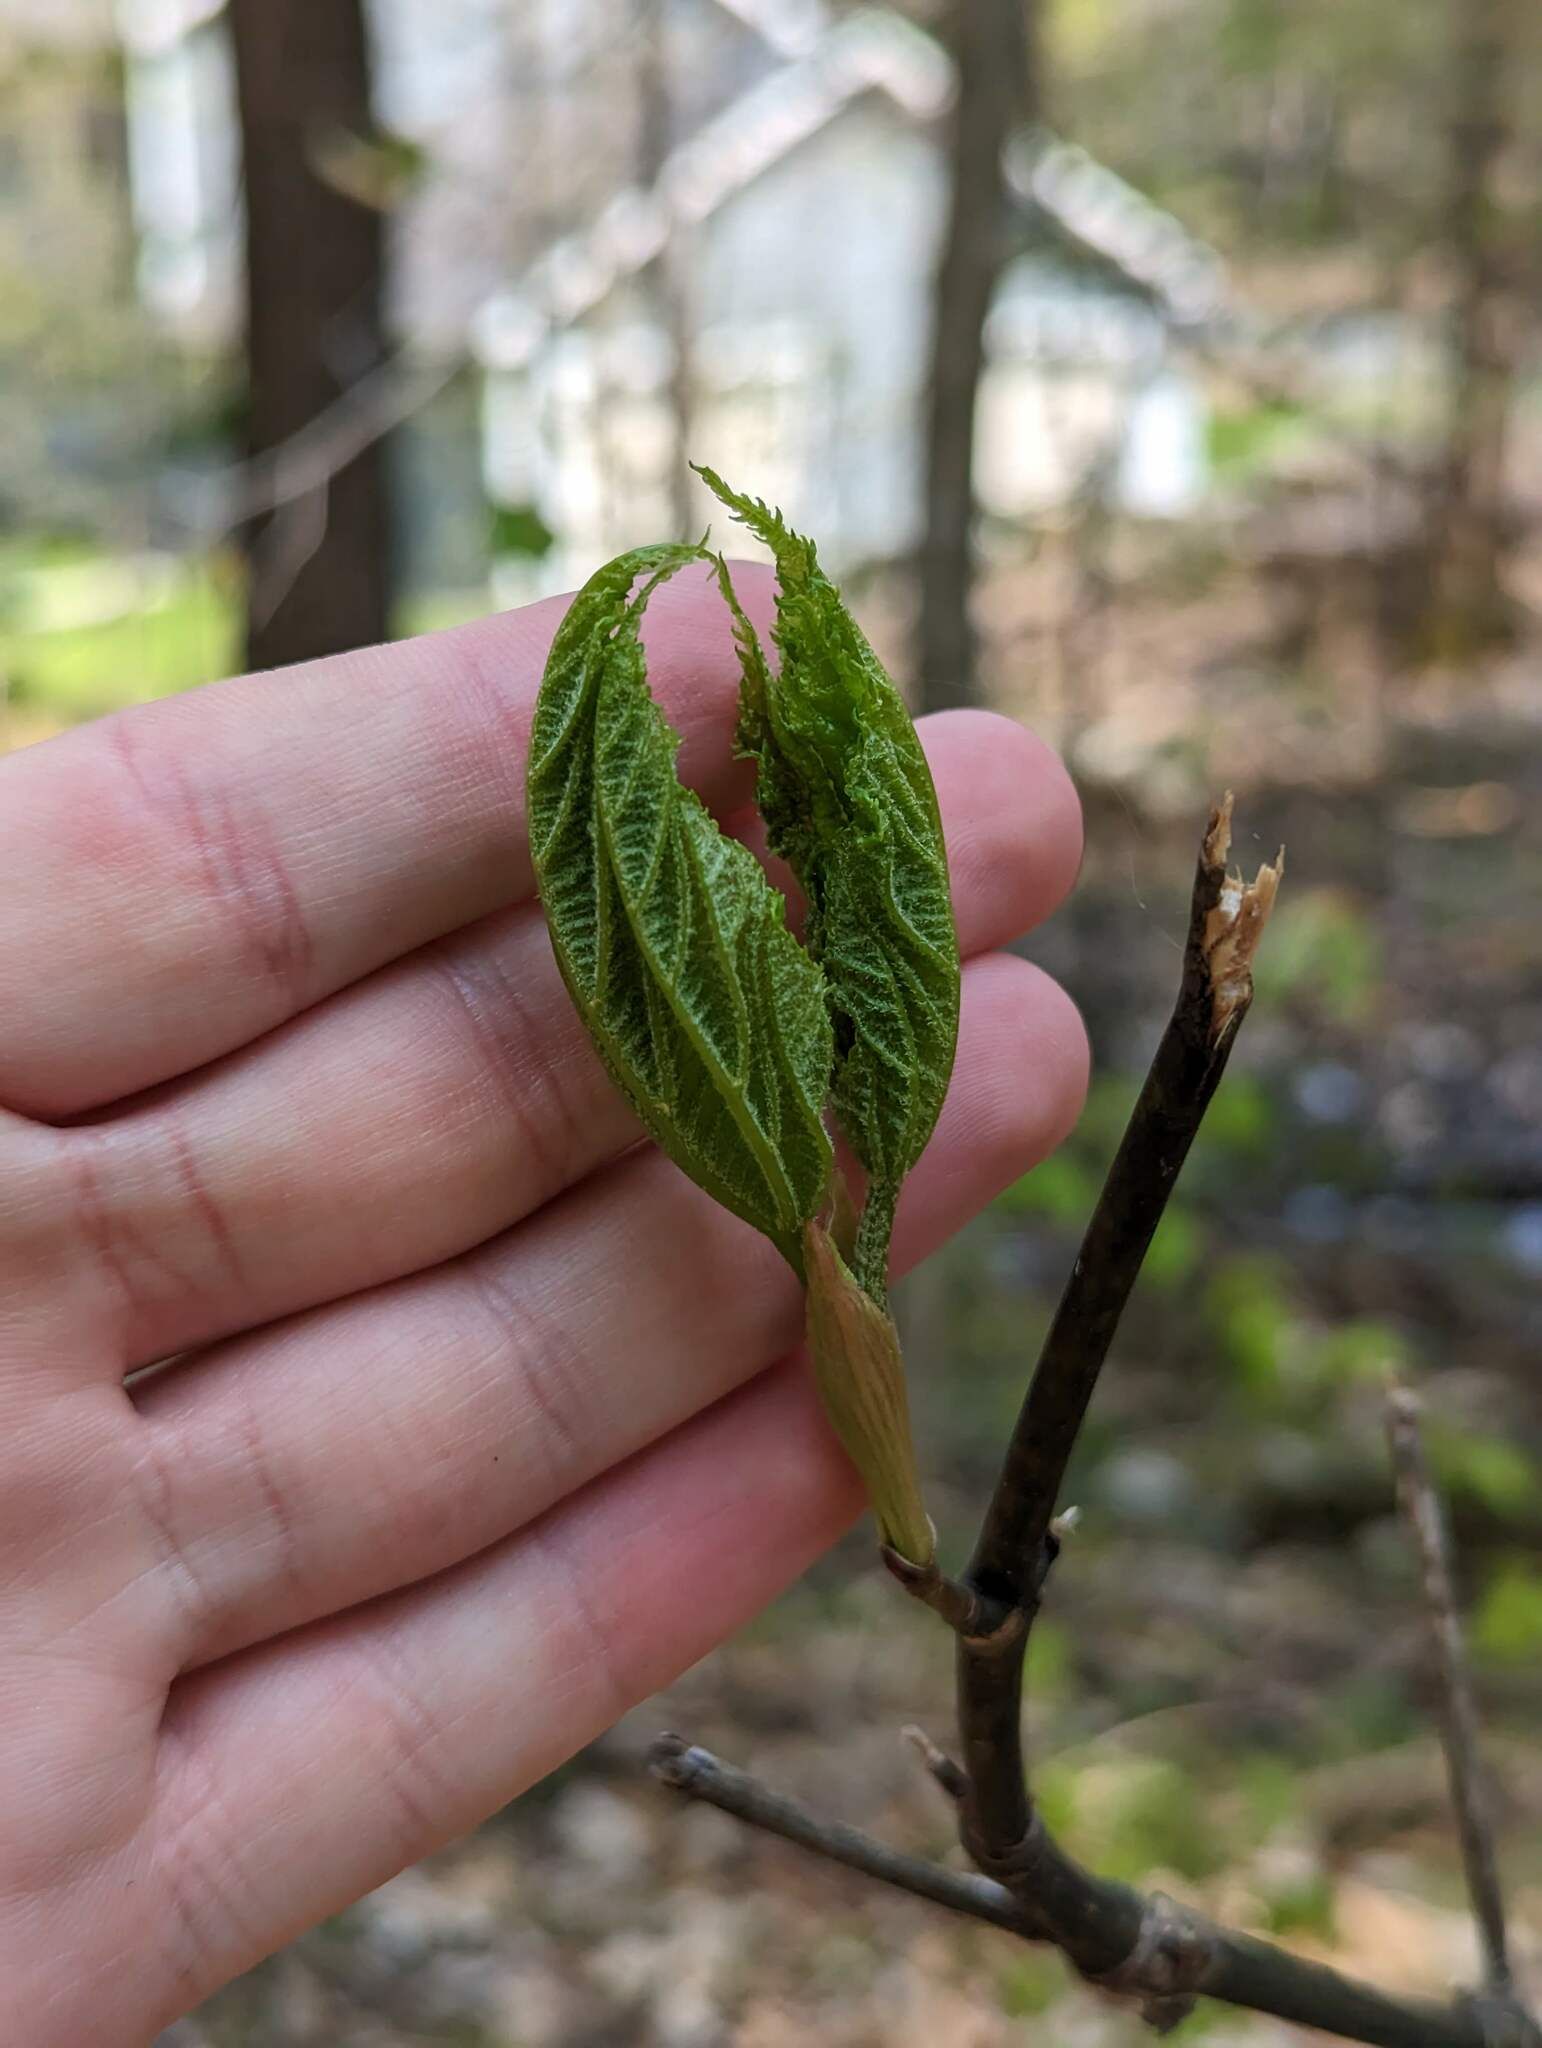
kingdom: Plantae
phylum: Tracheophyta
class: Magnoliopsida
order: Sapindales
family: Sapindaceae
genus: Acer
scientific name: Acer pensylvanicum
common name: Moosewood
